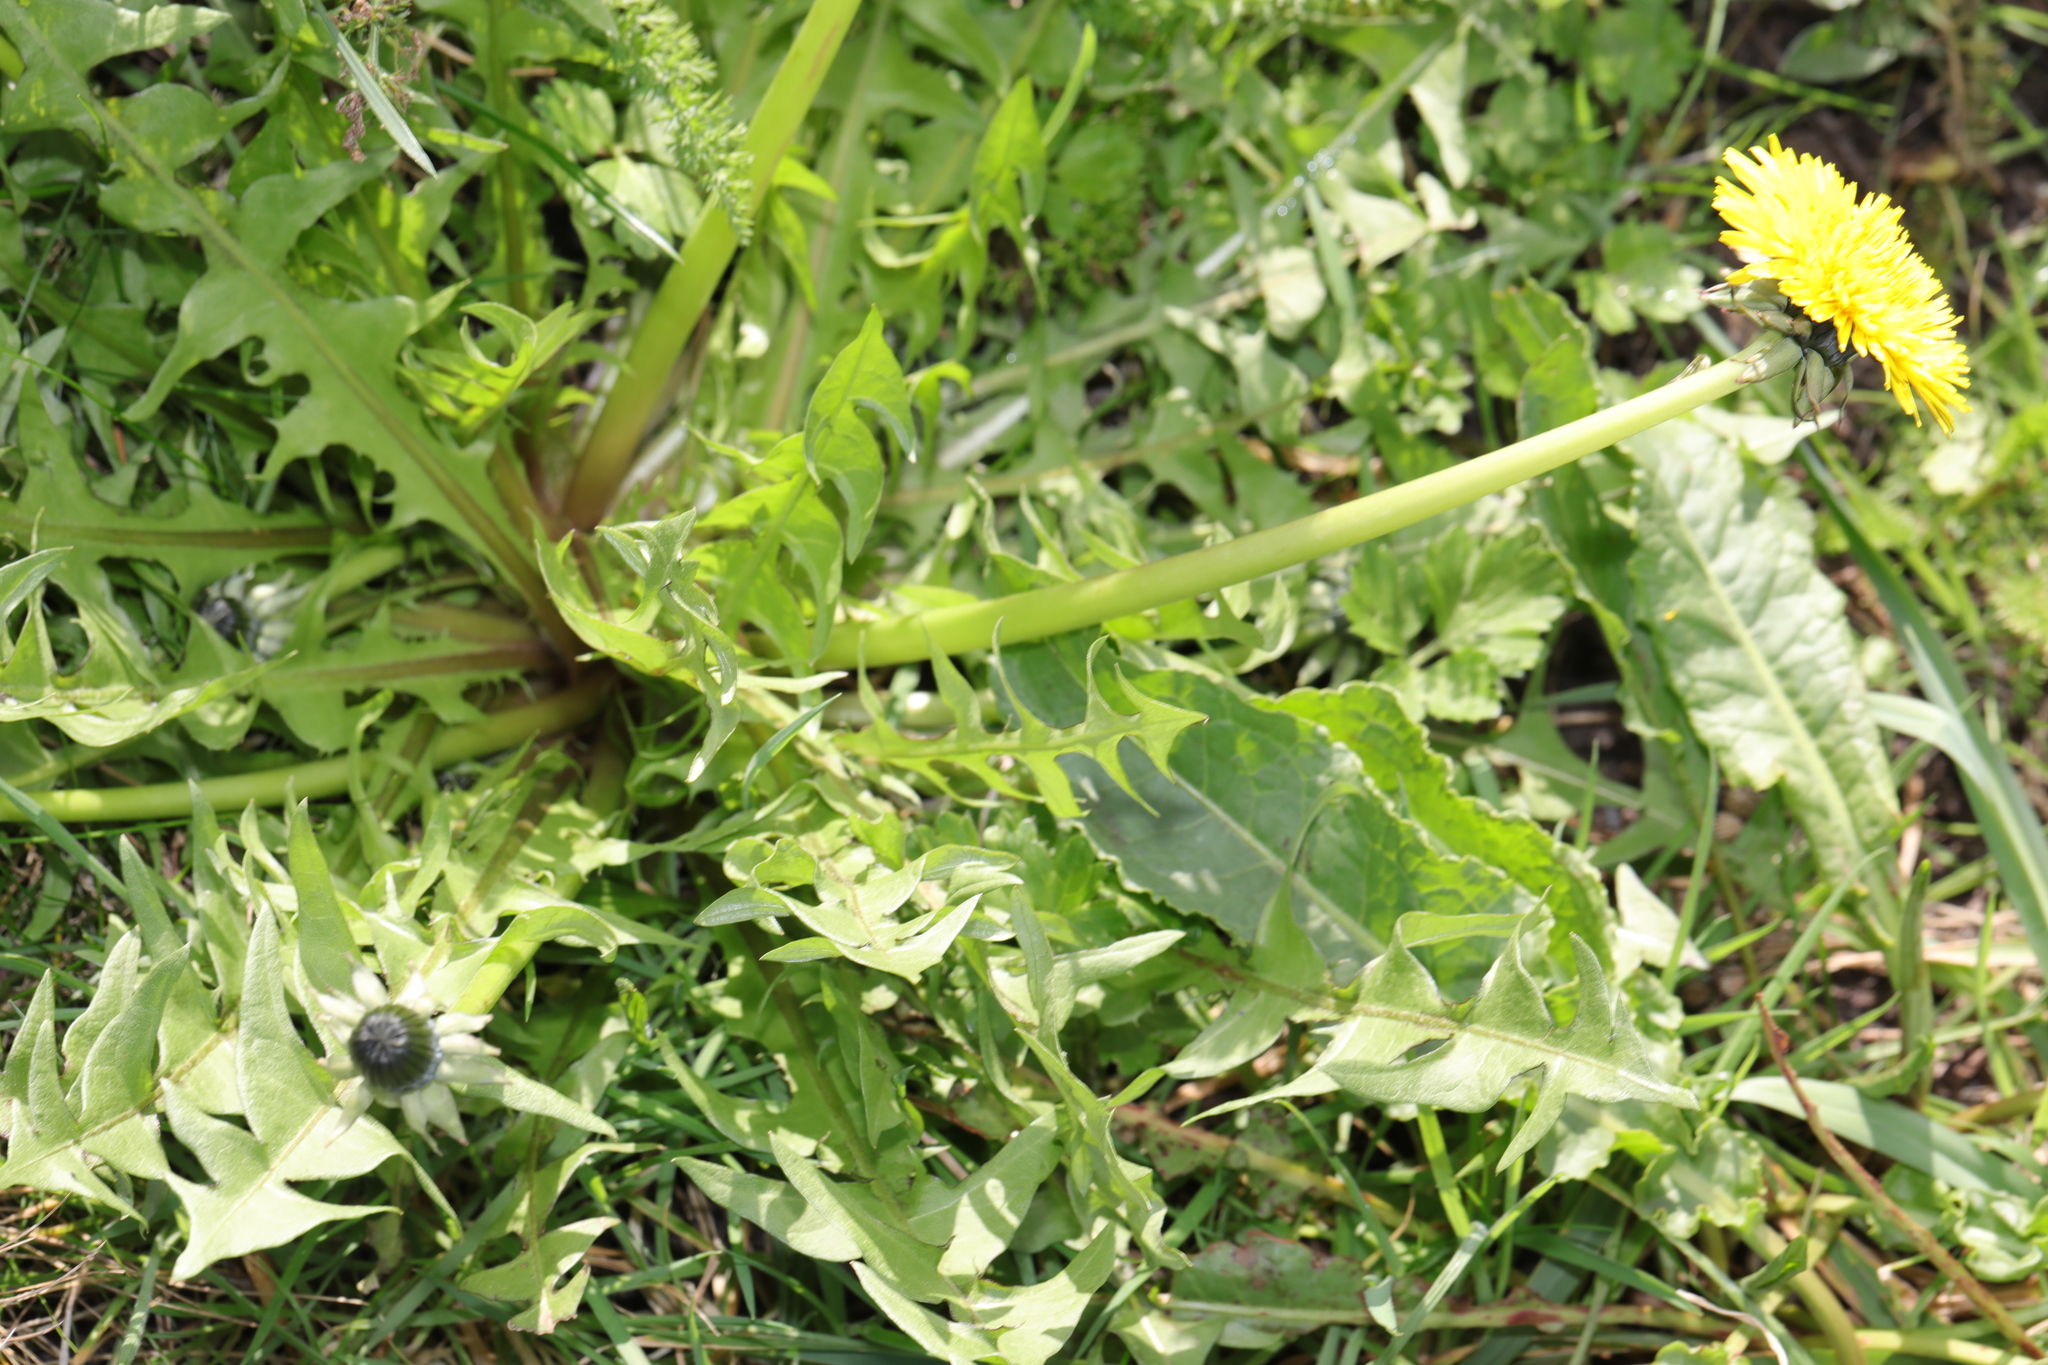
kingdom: Plantae
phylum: Tracheophyta
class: Magnoliopsida
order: Asterales
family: Asteraceae
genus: Taraxacum
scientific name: Taraxacum officinale
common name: Common dandelion
